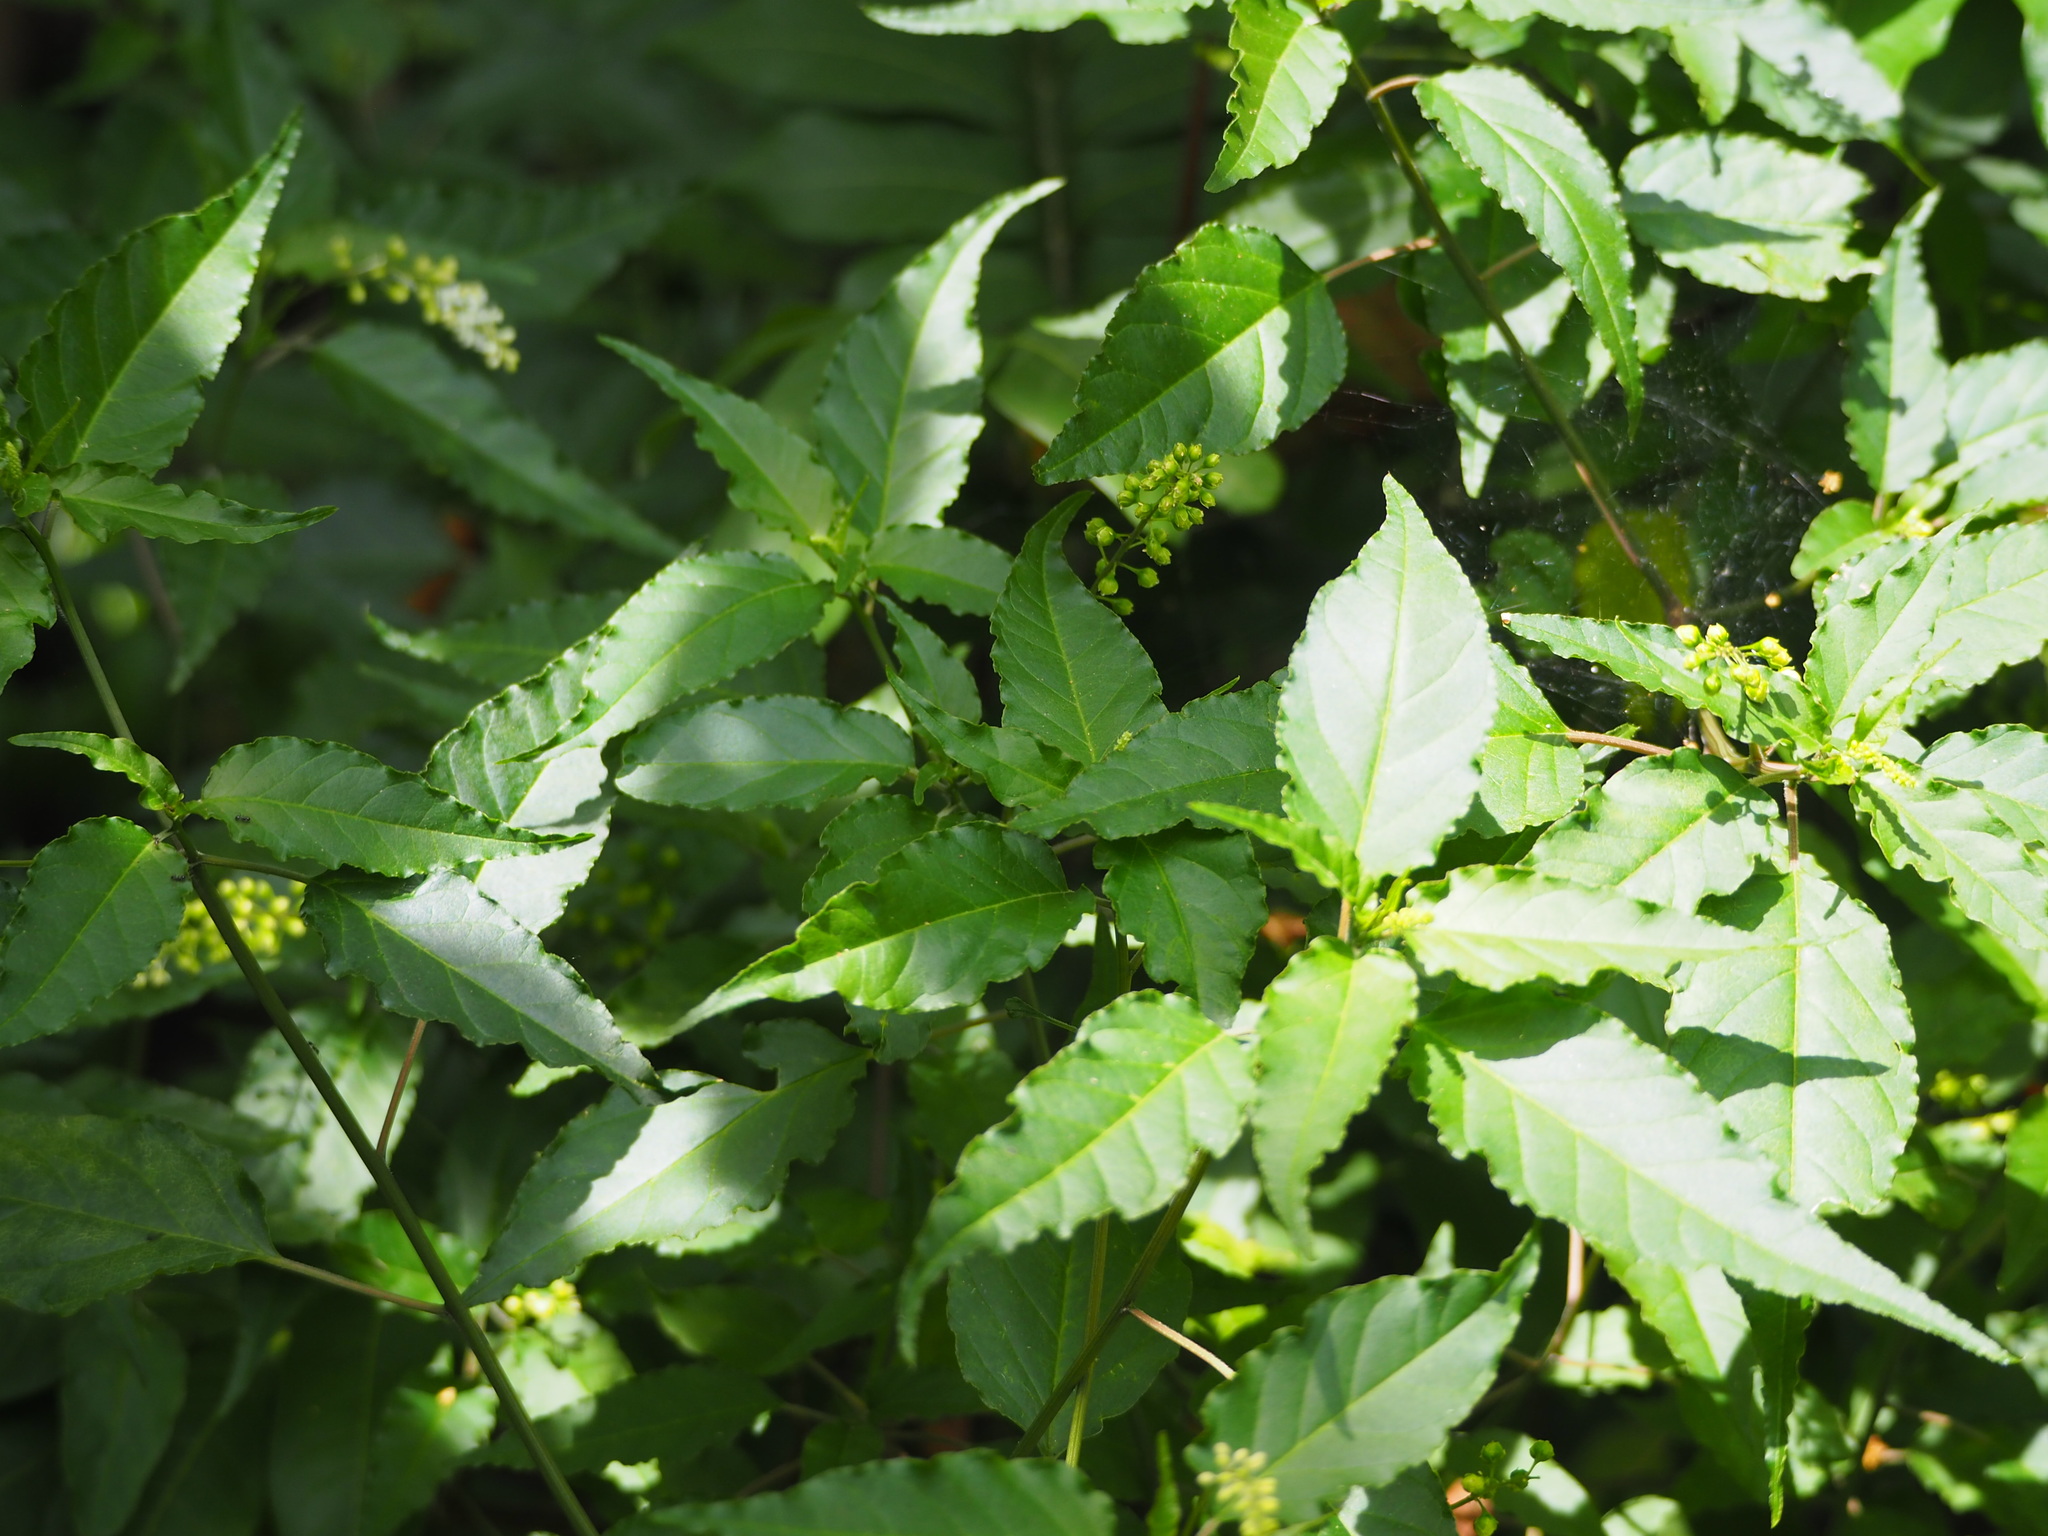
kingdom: Plantae
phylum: Tracheophyta
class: Magnoliopsida
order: Caryophyllales
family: Phytolaccaceae
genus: Rivina
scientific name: Rivina humilis
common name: Rougeplant
